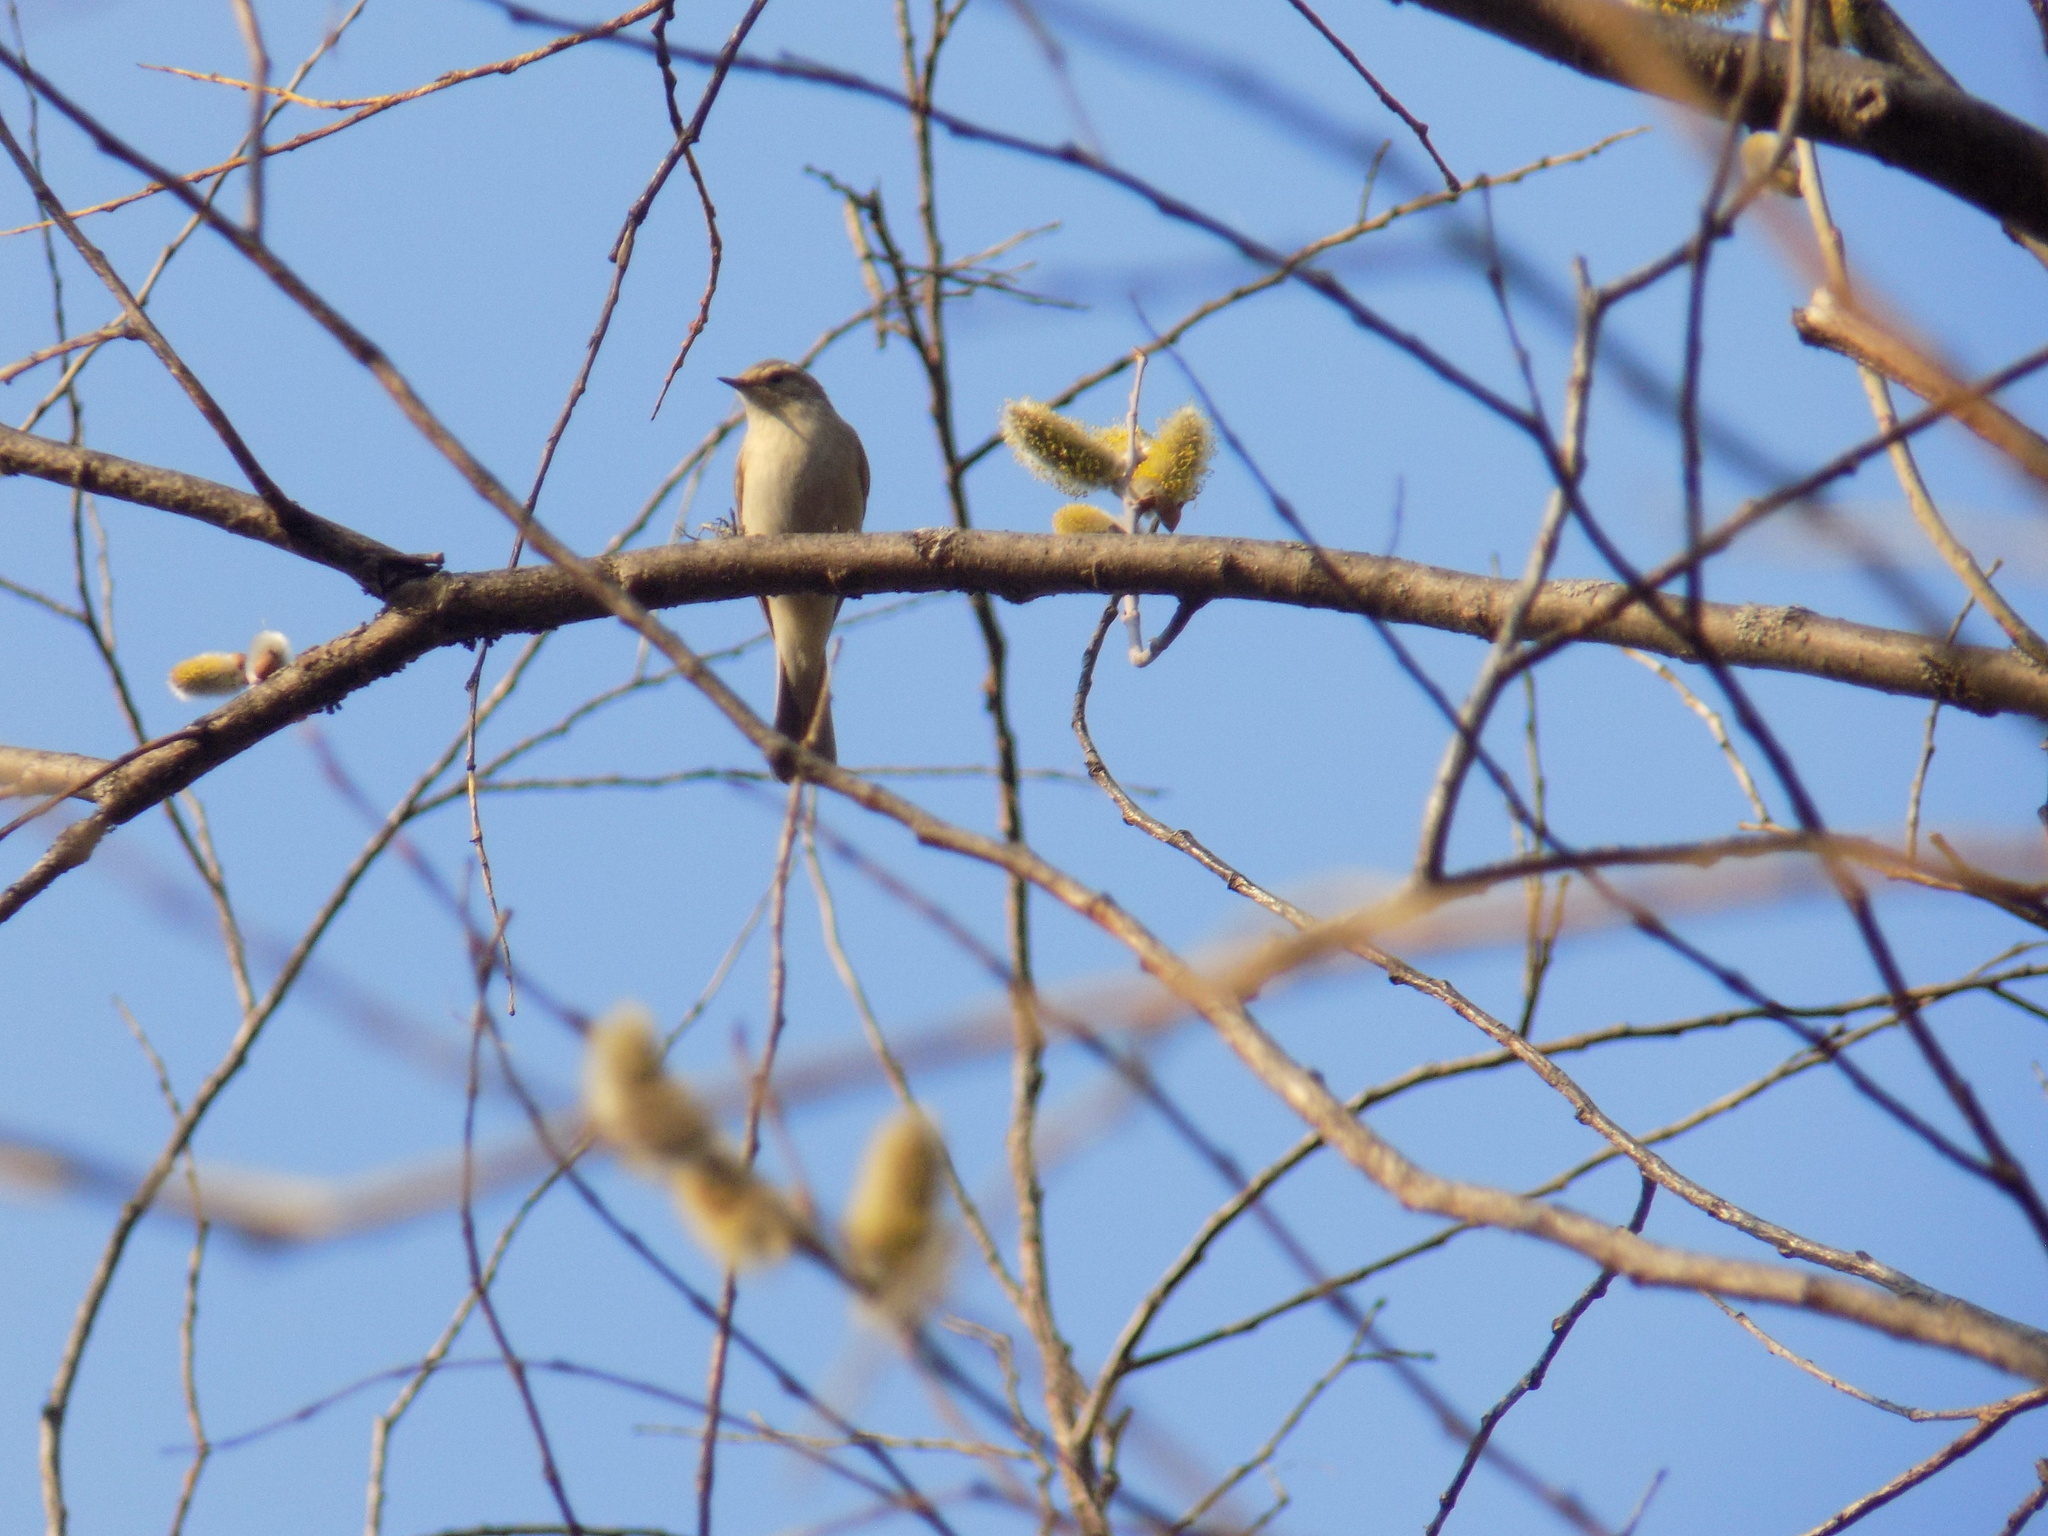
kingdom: Animalia
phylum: Chordata
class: Aves
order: Passeriformes
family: Phylloscopidae
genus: Phylloscopus
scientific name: Phylloscopus collybita
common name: Common chiffchaff
